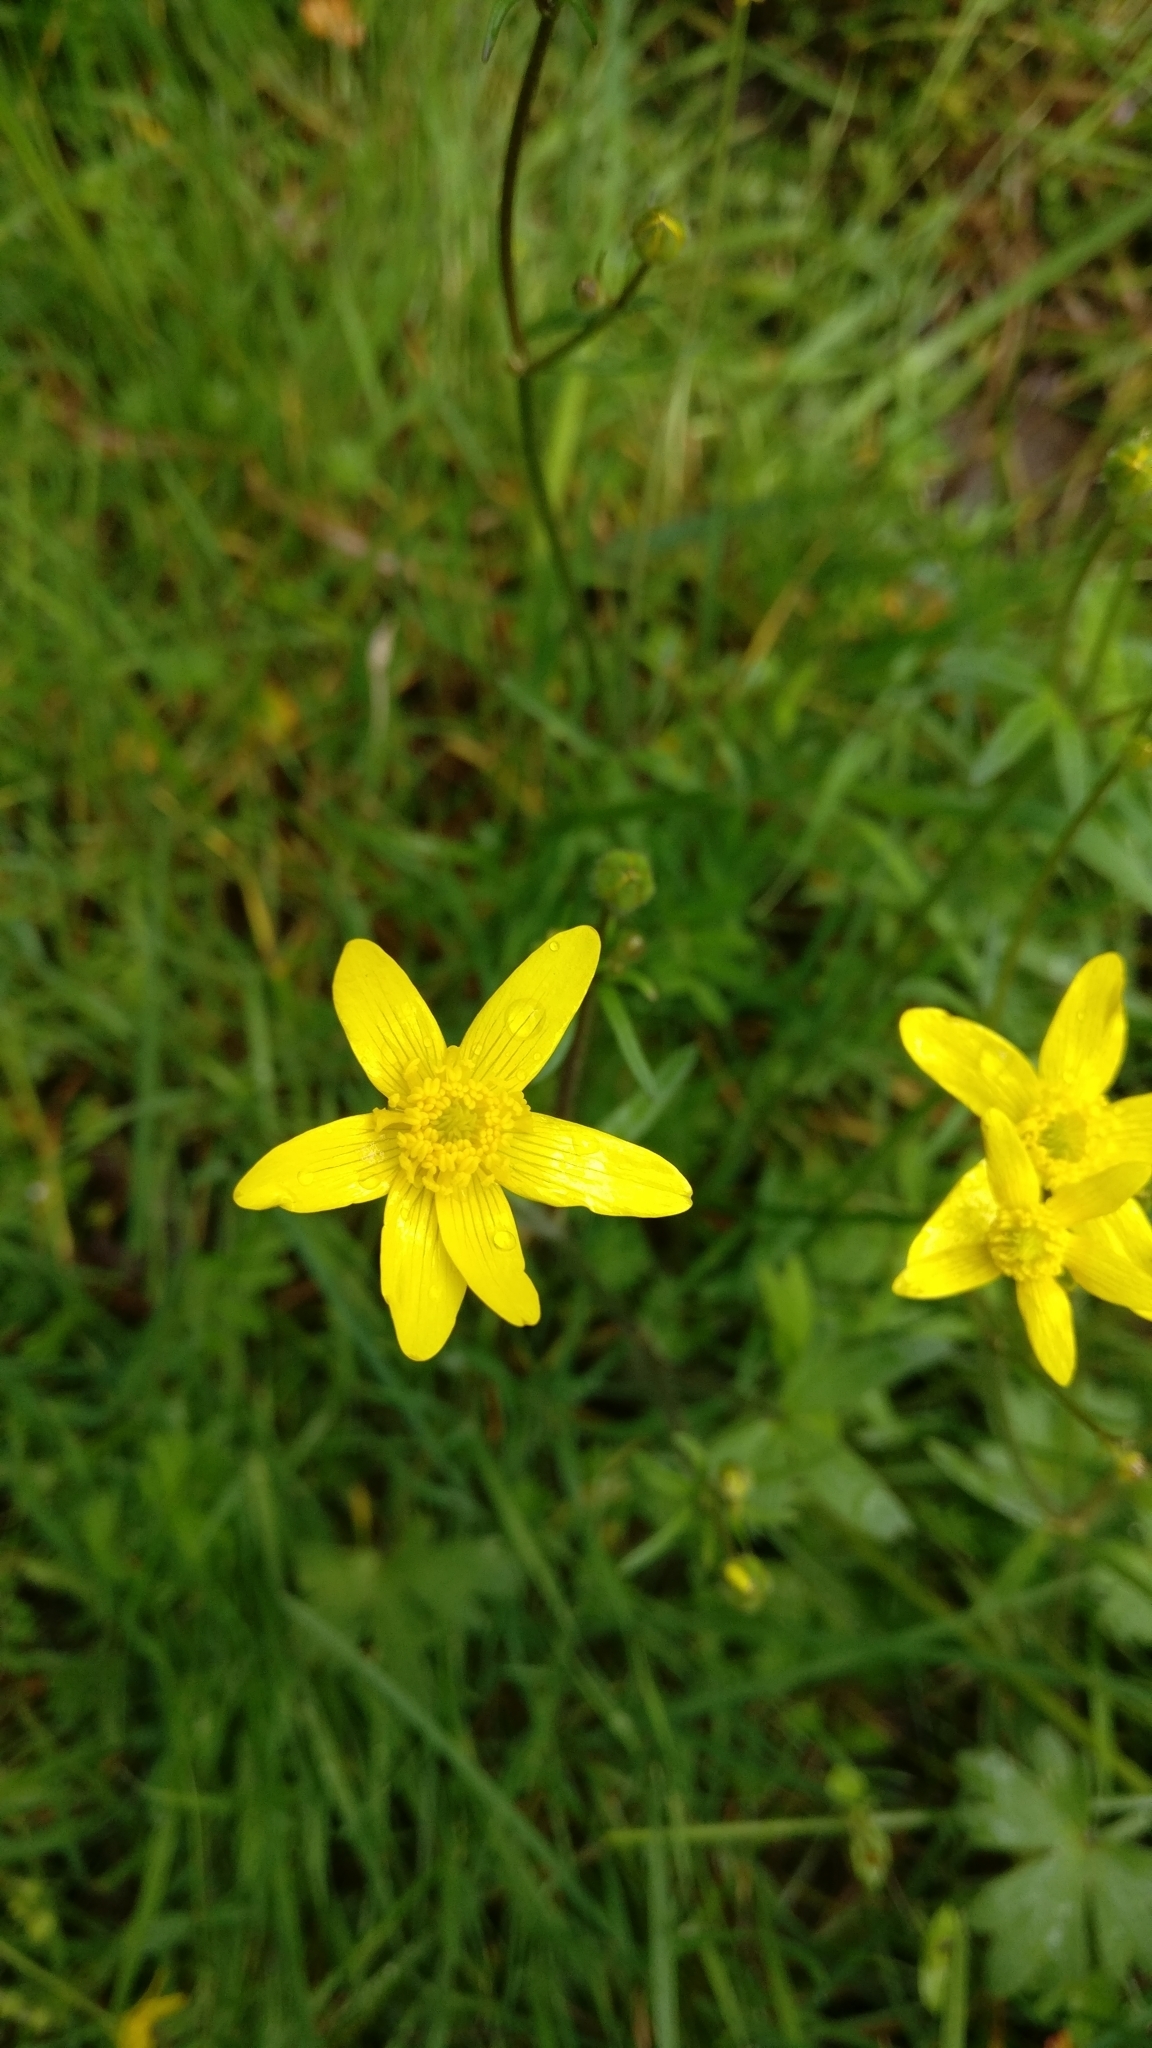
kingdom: Plantae
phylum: Tracheophyta
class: Magnoliopsida
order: Ranunculales
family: Ranunculaceae
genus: Ranunculus
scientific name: Ranunculus occidentalis
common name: Western buttercup
